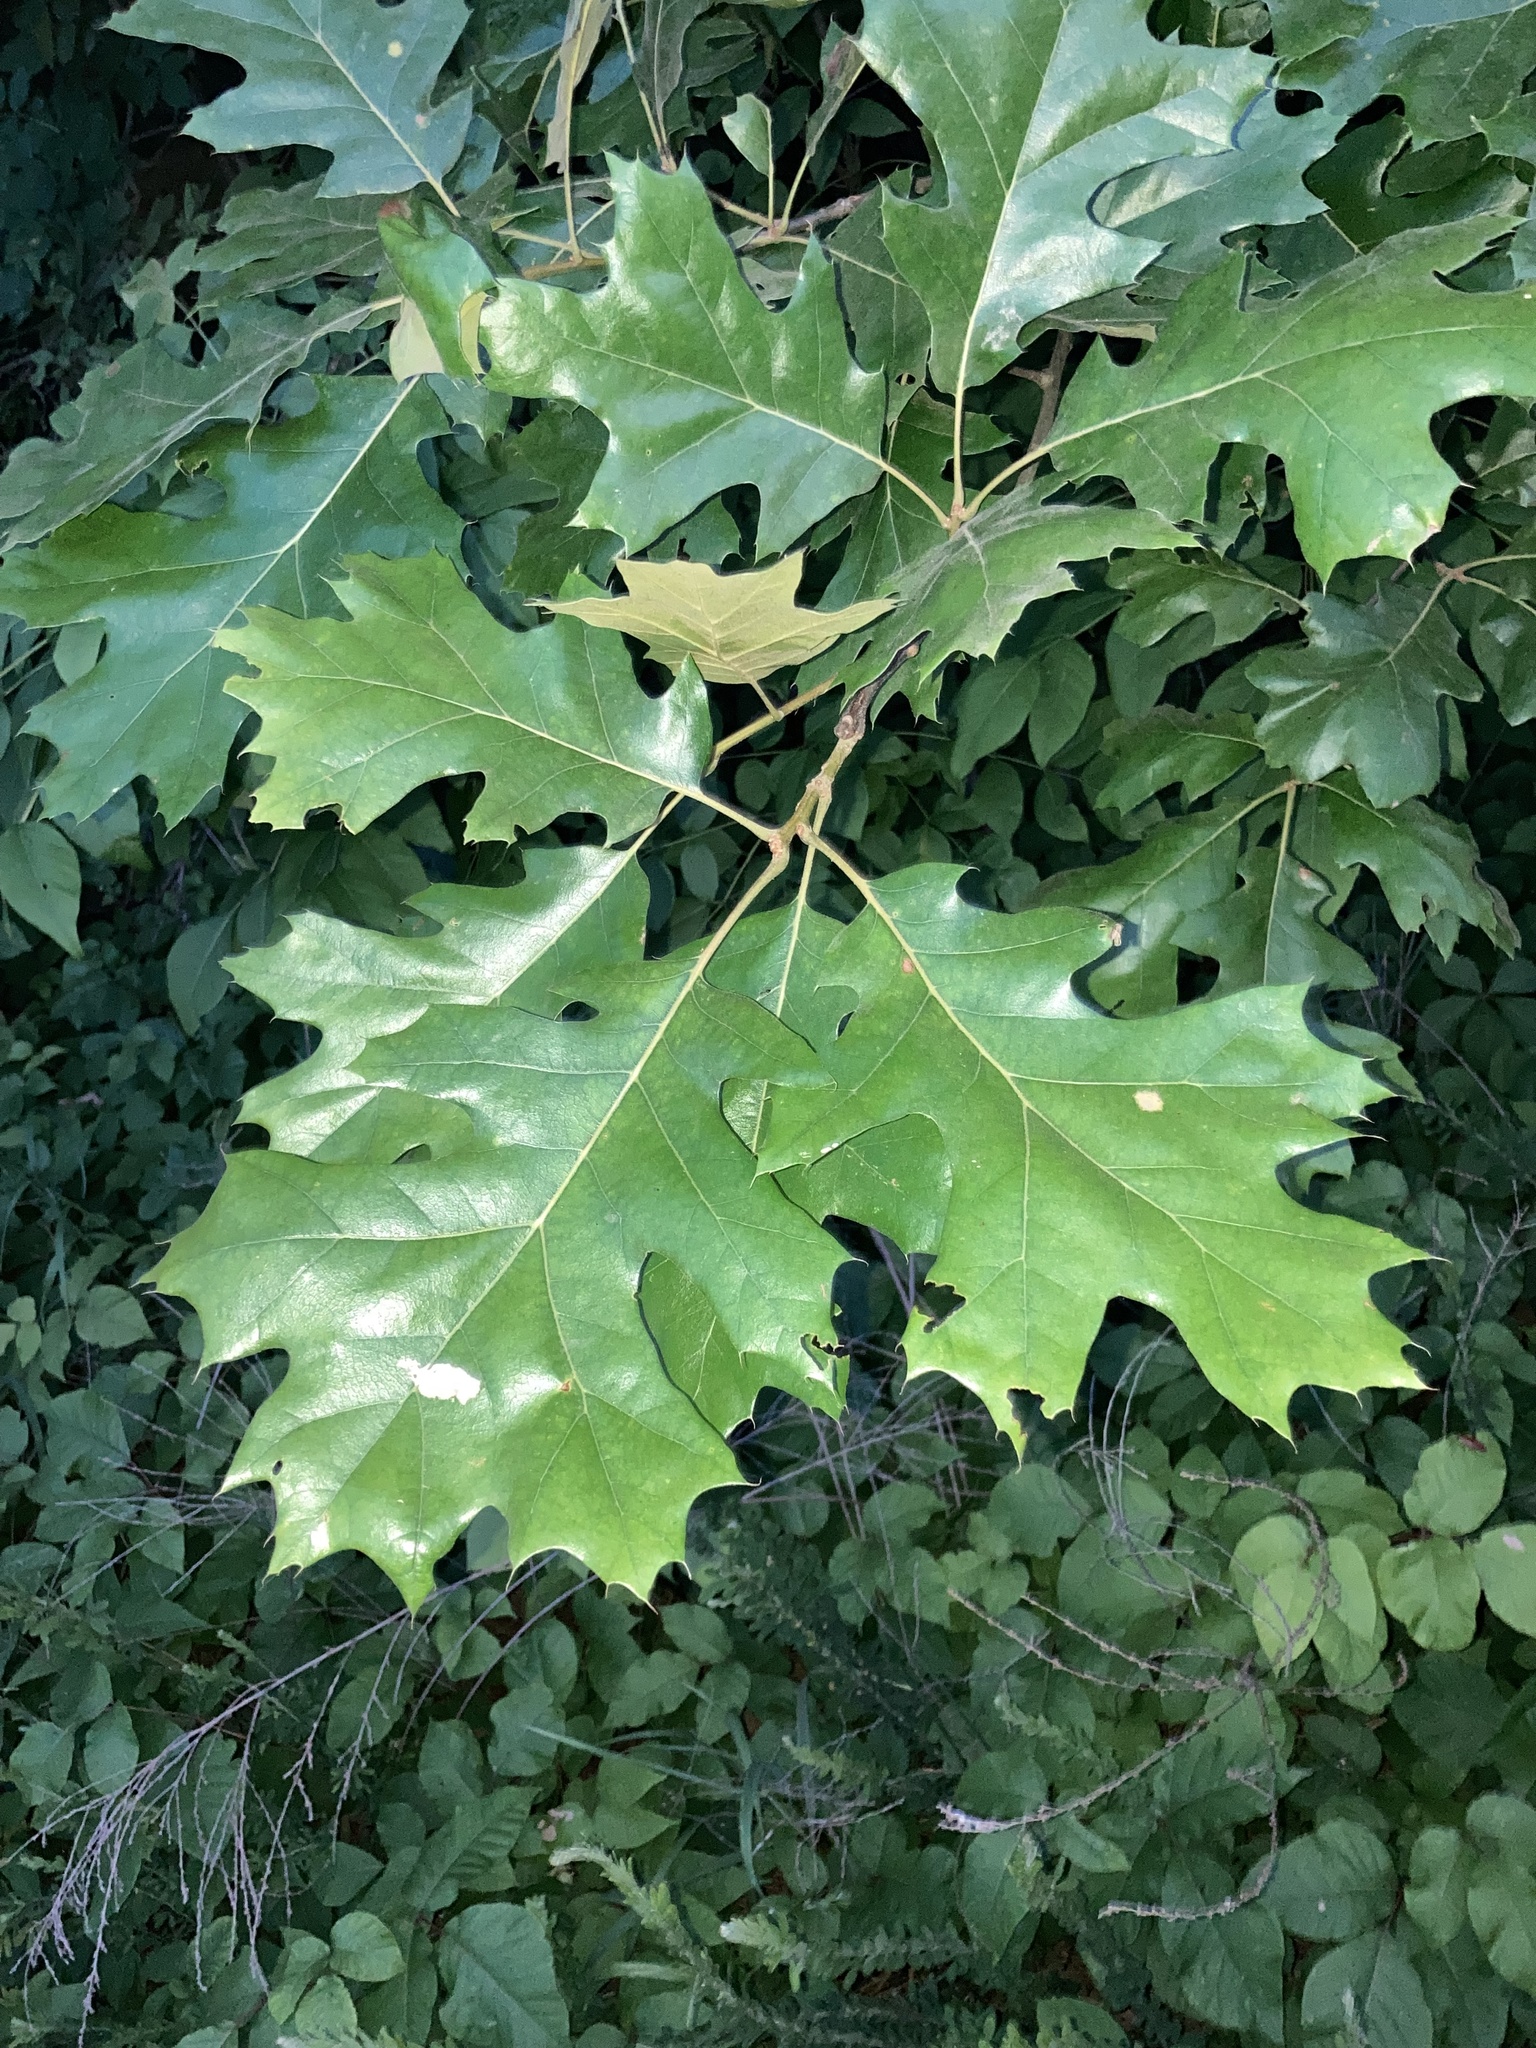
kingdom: Plantae
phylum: Tracheophyta
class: Magnoliopsida
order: Fagales
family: Fagaceae
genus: Quercus
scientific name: Quercus velutina
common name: Black oak
